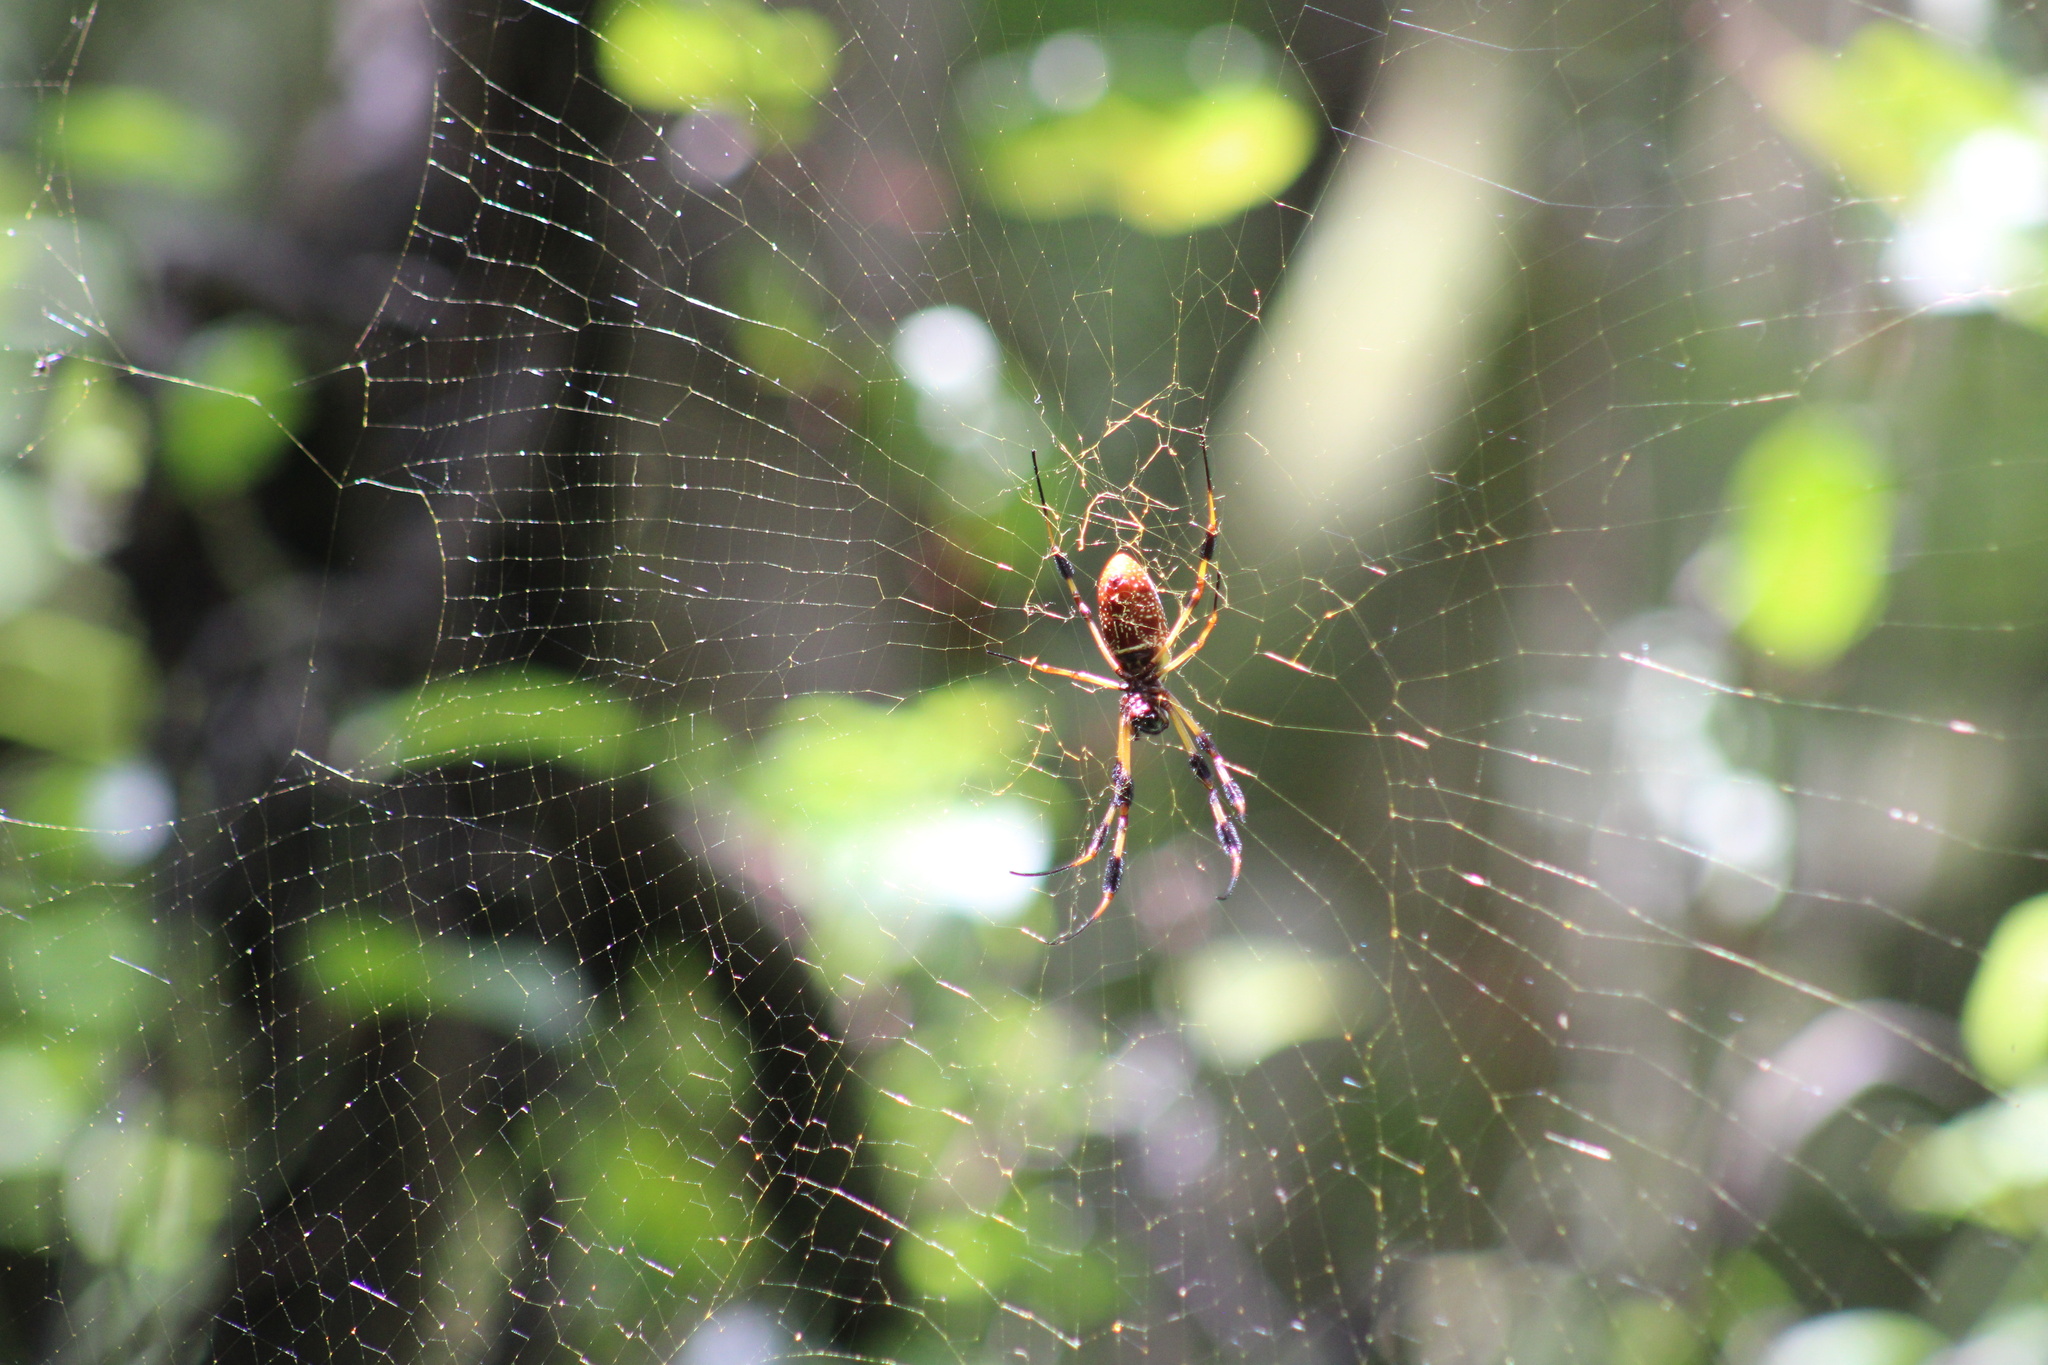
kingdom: Animalia
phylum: Arthropoda
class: Arachnida
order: Araneae
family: Araneidae
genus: Trichonephila
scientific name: Trichonephila clavipes
